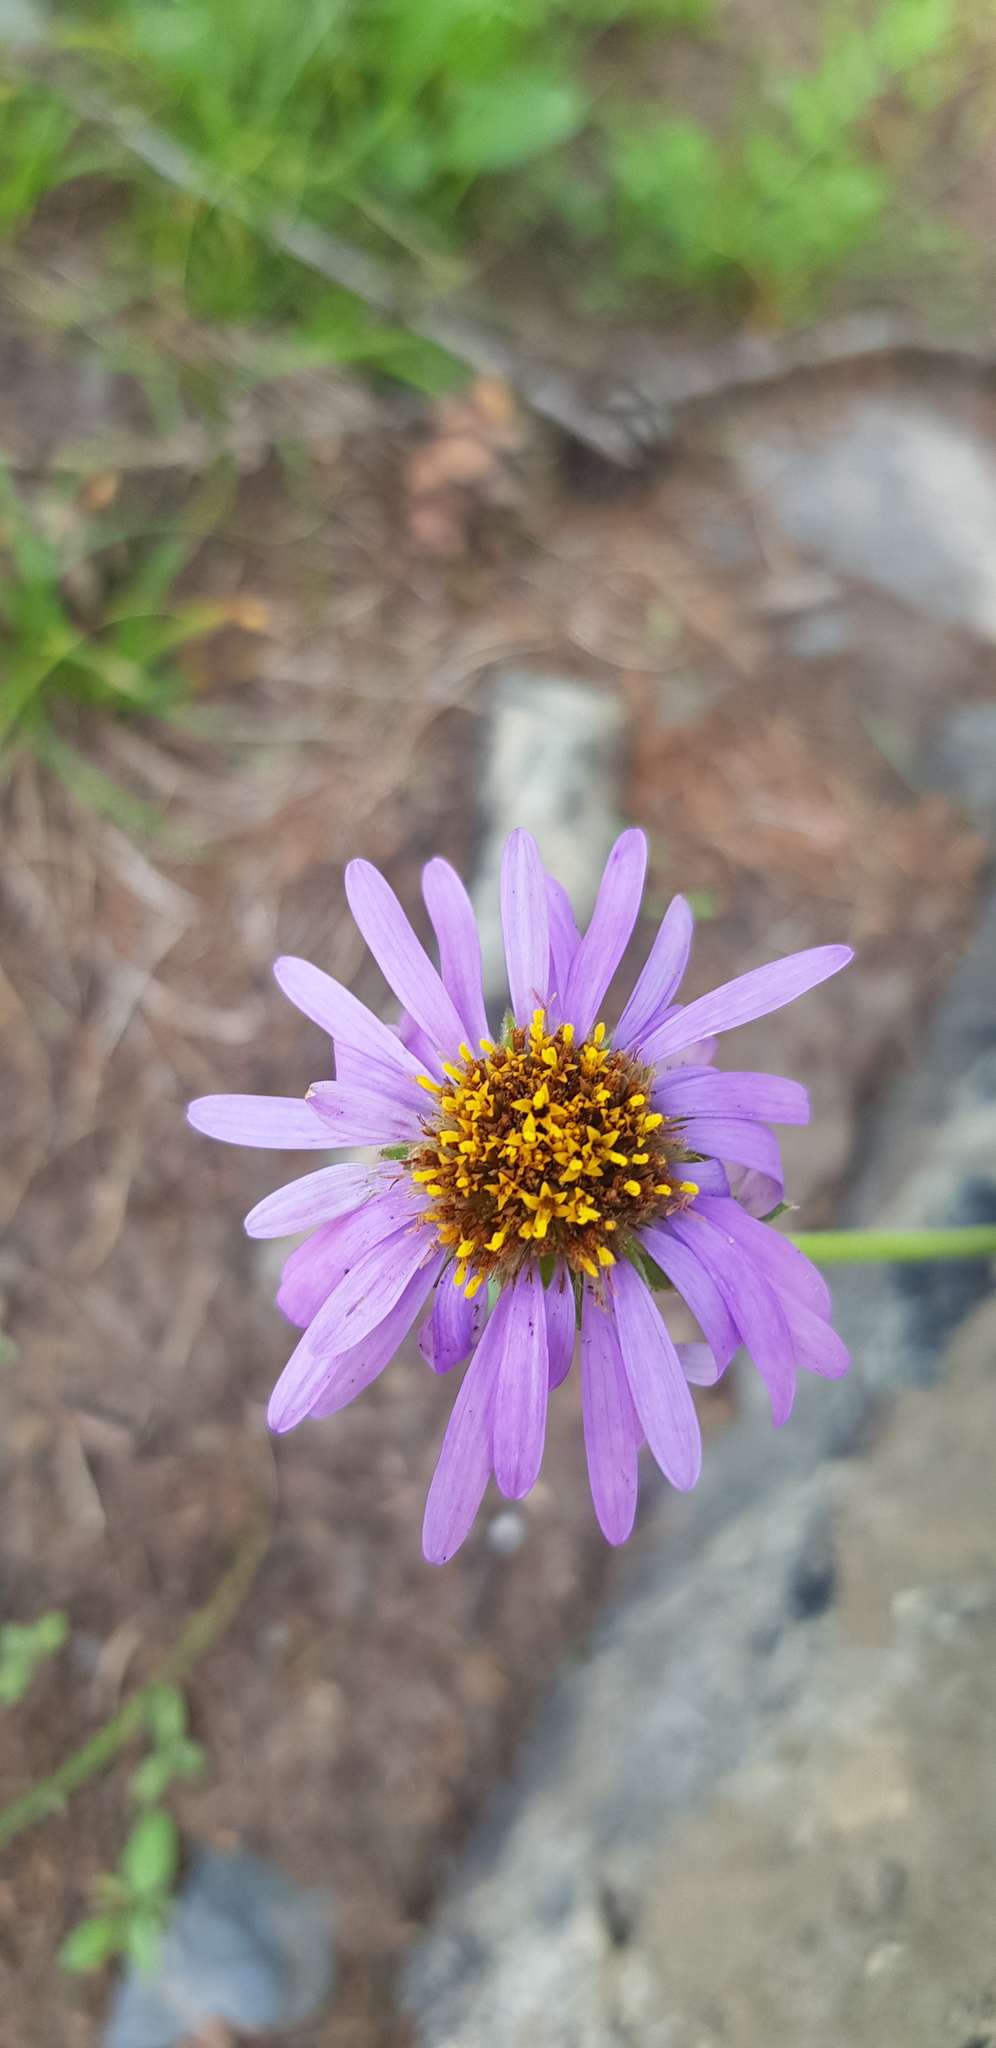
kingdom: Plantae
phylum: Tracheophyta
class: Magnoliopsida
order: Asterales
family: Asteraceae
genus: Aster
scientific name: Aster alpinus
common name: Alpine aster
